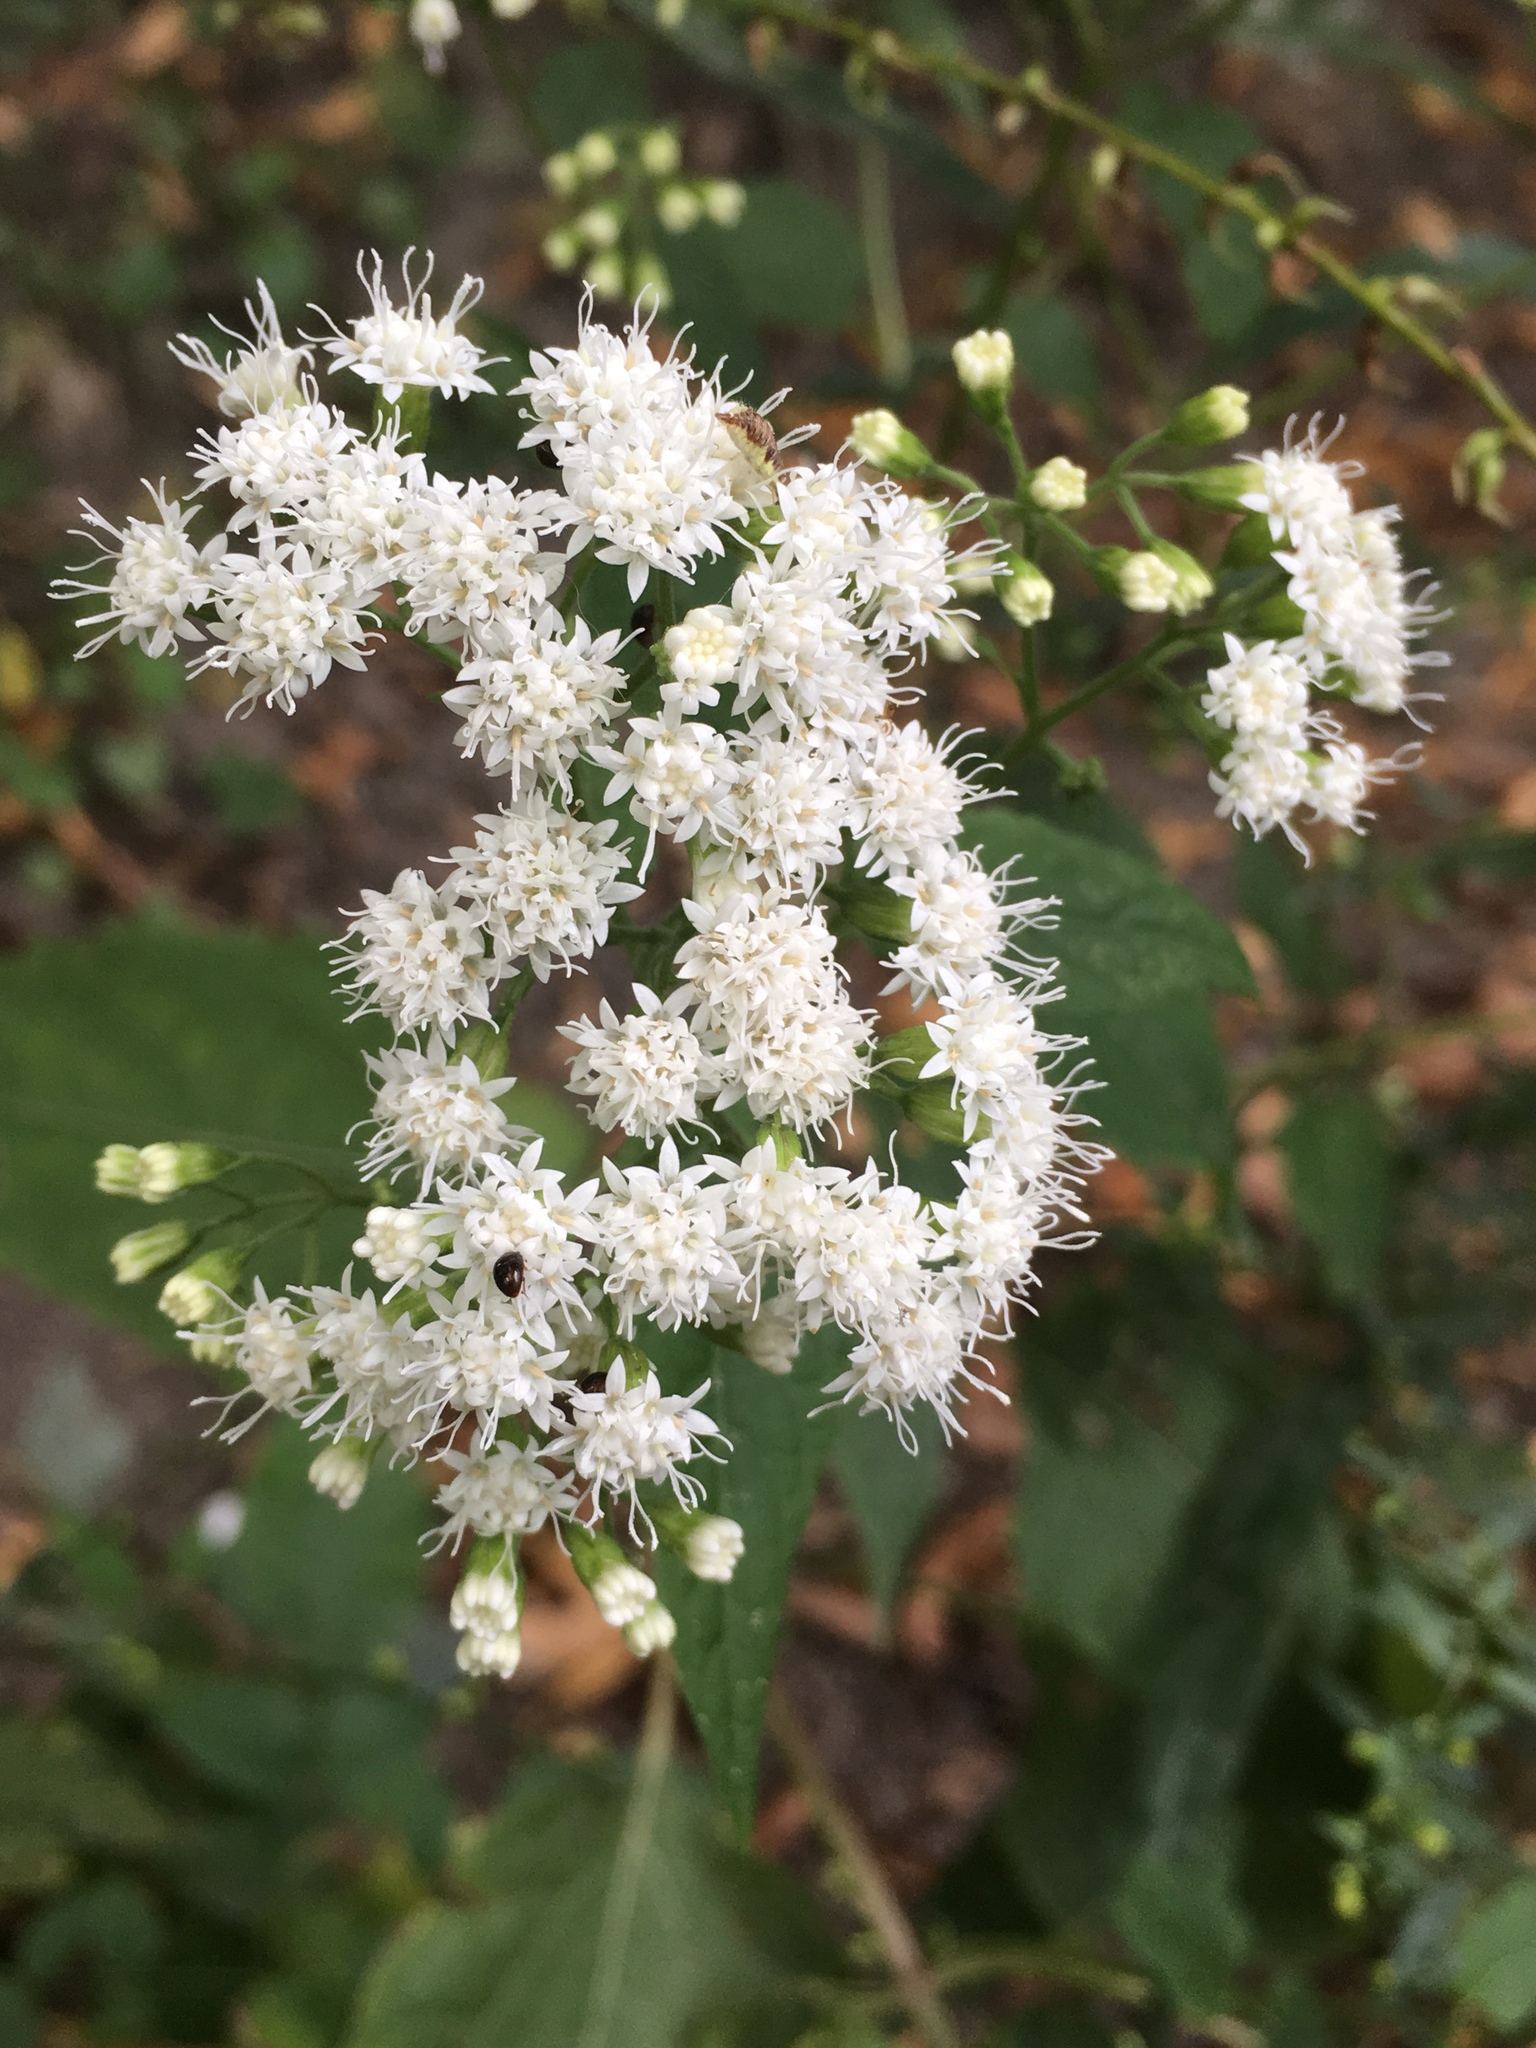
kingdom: Plantae
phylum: Tracheophyta
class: Magnoliopsida
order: Asterales
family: Asteraceae
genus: Ageratina
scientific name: Ageratina altissima
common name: White snakeroot
